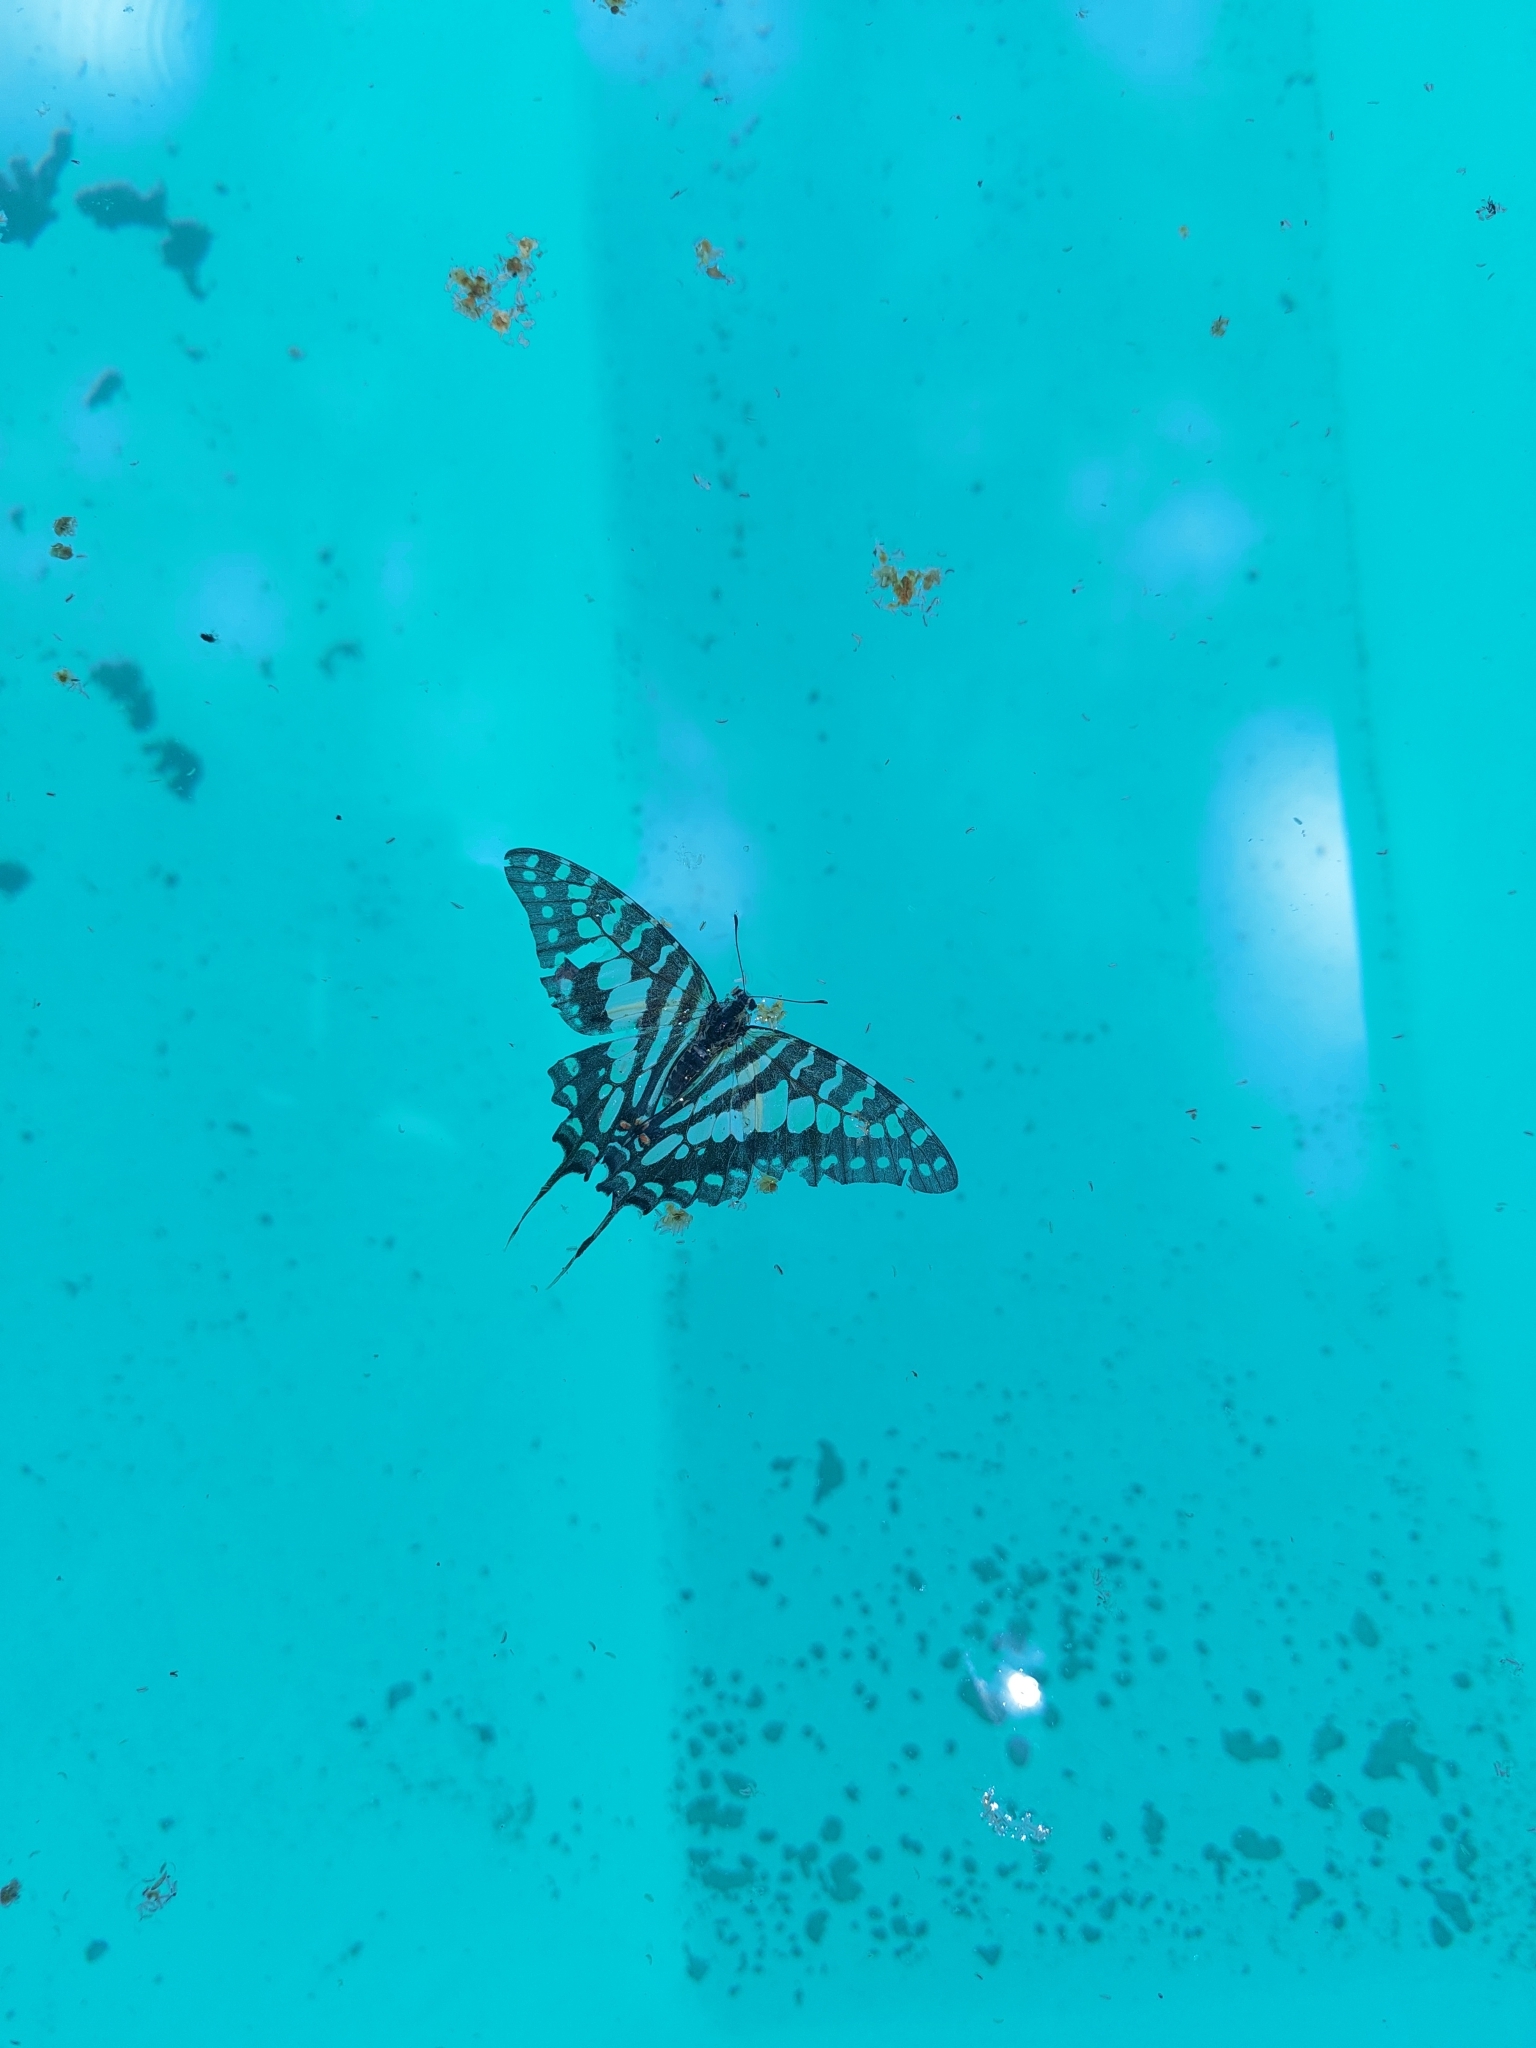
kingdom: Animalia
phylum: Arthropoda
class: Insecta
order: Lepidoptera
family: Papilionidae
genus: Graphium
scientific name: Graphium antheus
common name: Large striped swordtail
